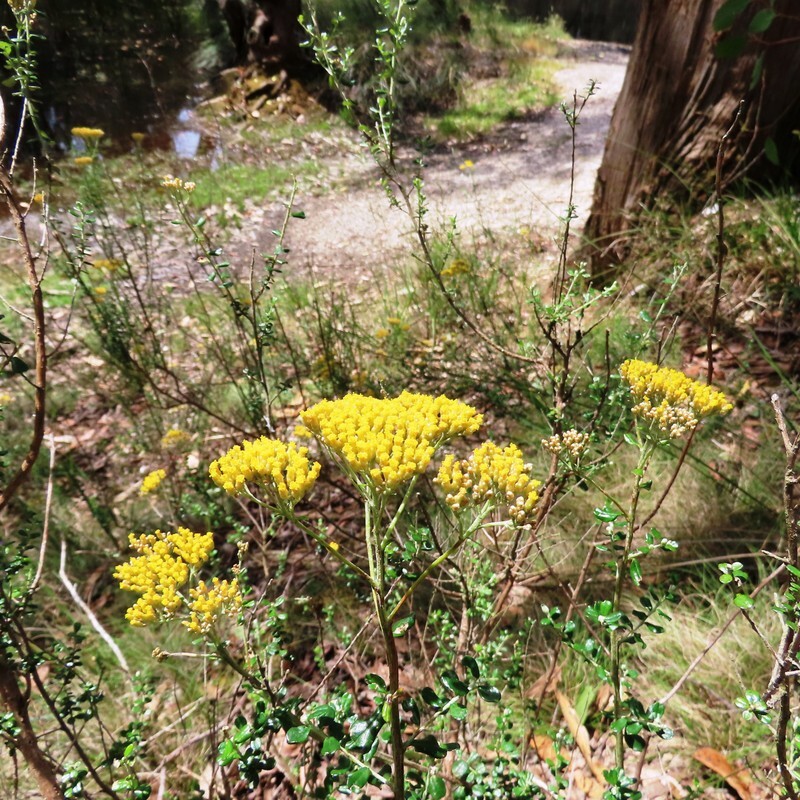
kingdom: Plantae
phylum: Tracheophyta
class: Magnoliopsida
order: Asterales
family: Asteraceae
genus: Ozothamnus
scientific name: Ozothamnus obcordatus
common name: Grey everlasting
